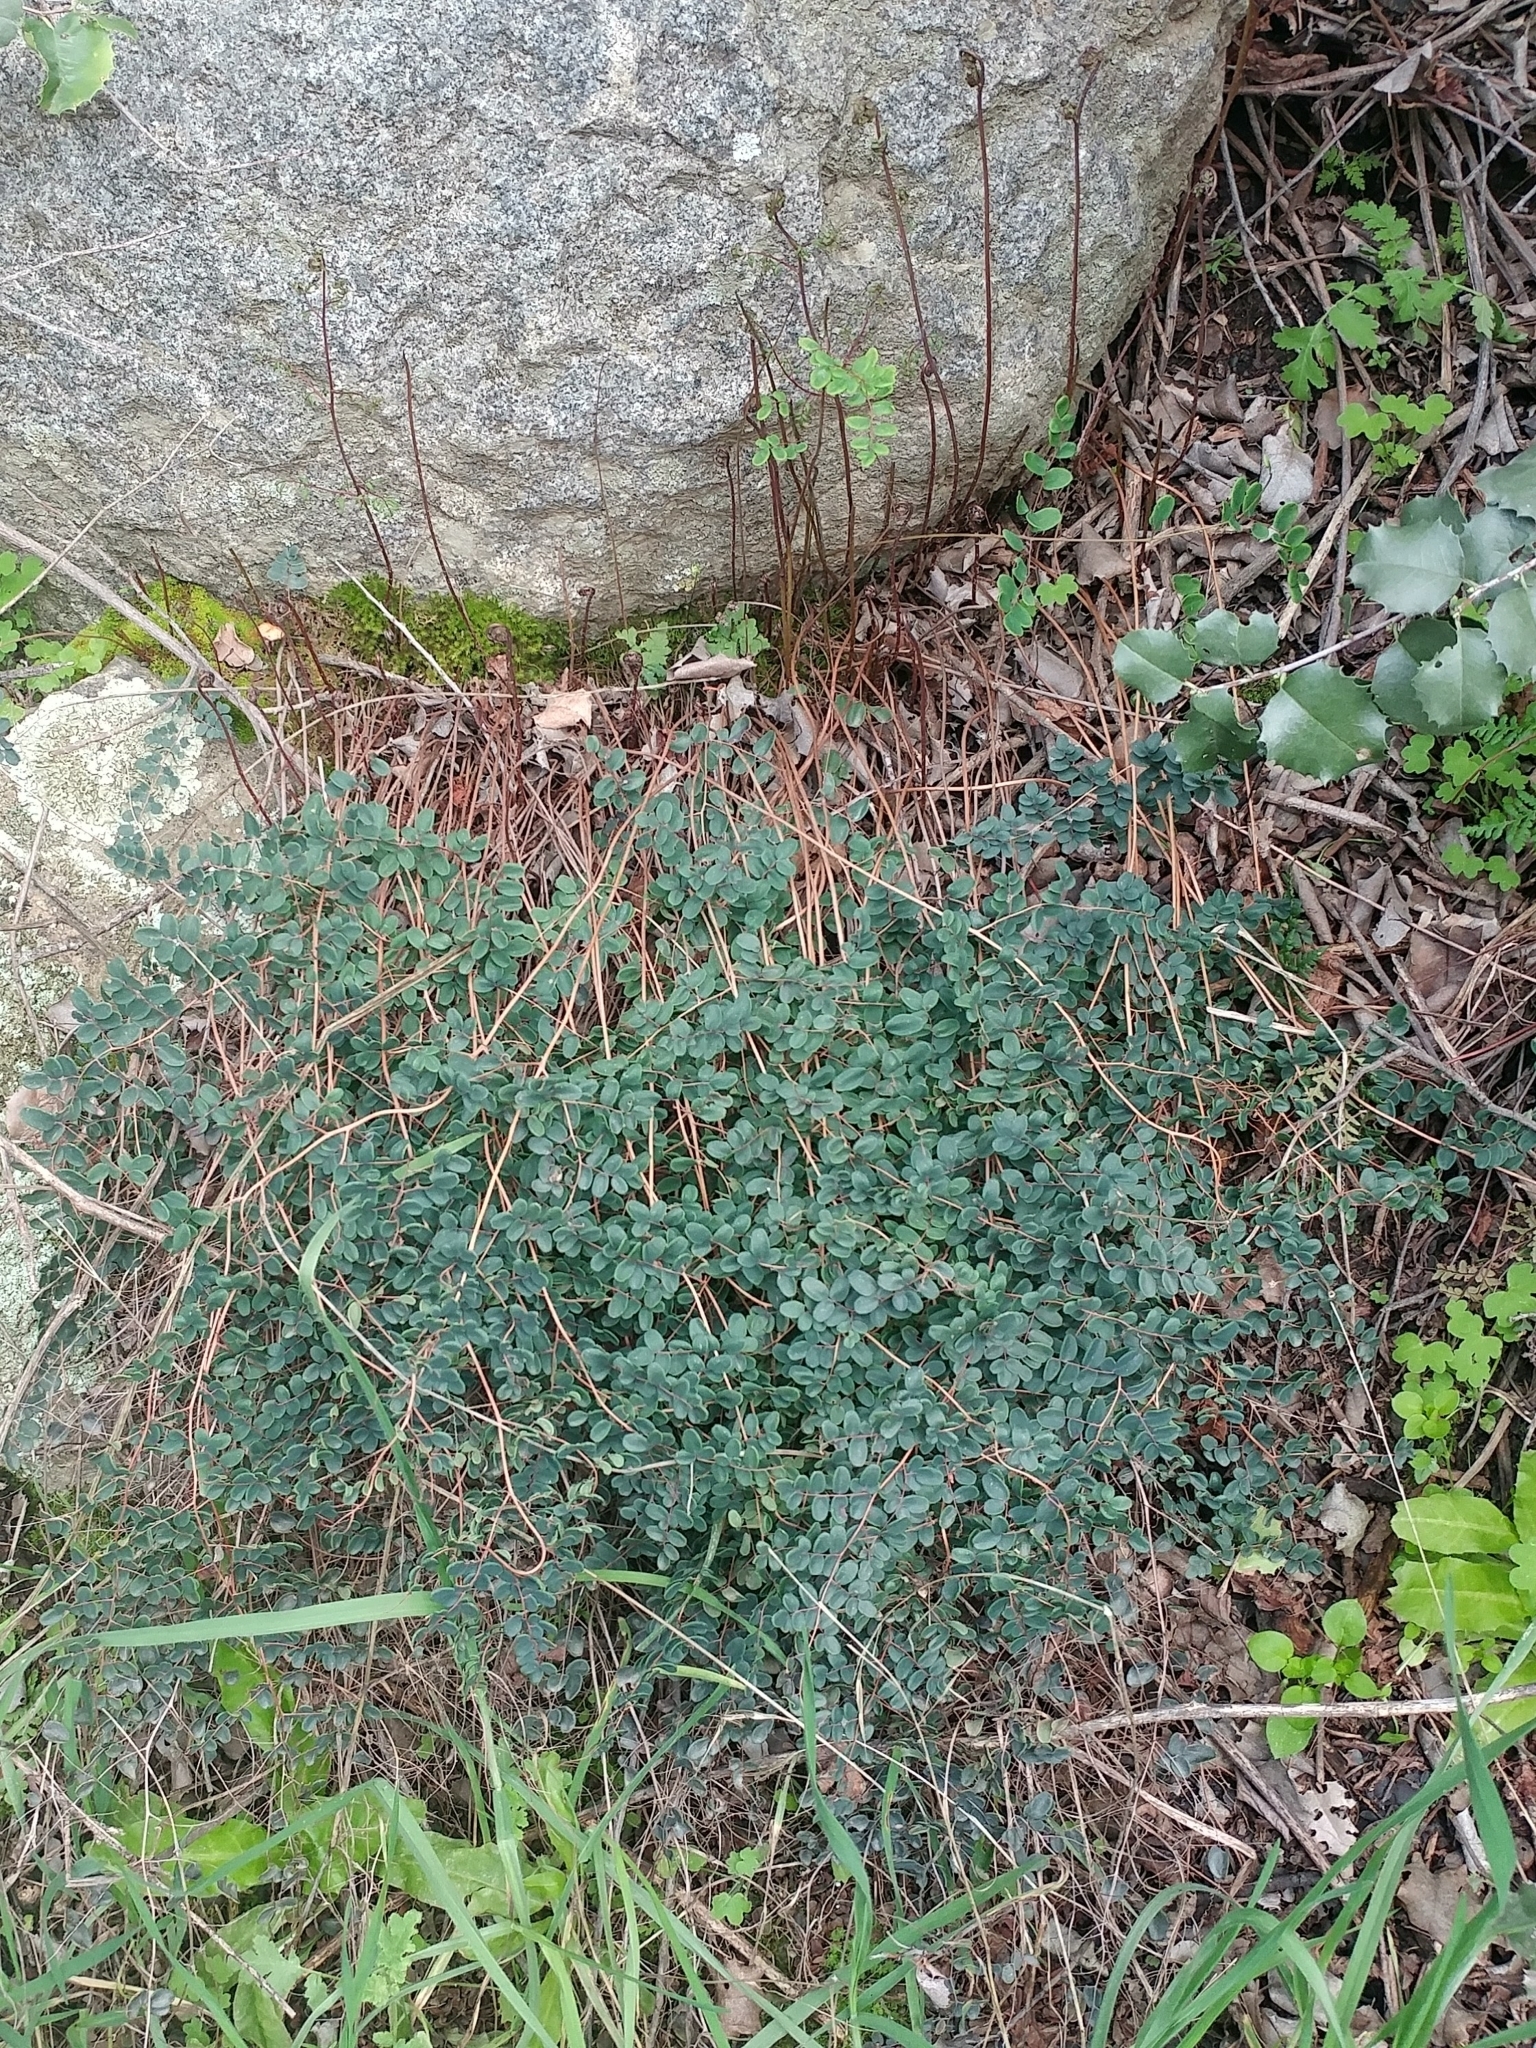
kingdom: Plantae
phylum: Tracheophyta
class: Polypodiopsida
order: Polypodiales
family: Pteridaceae
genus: Pellaea
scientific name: Pellaea andromedifolia
